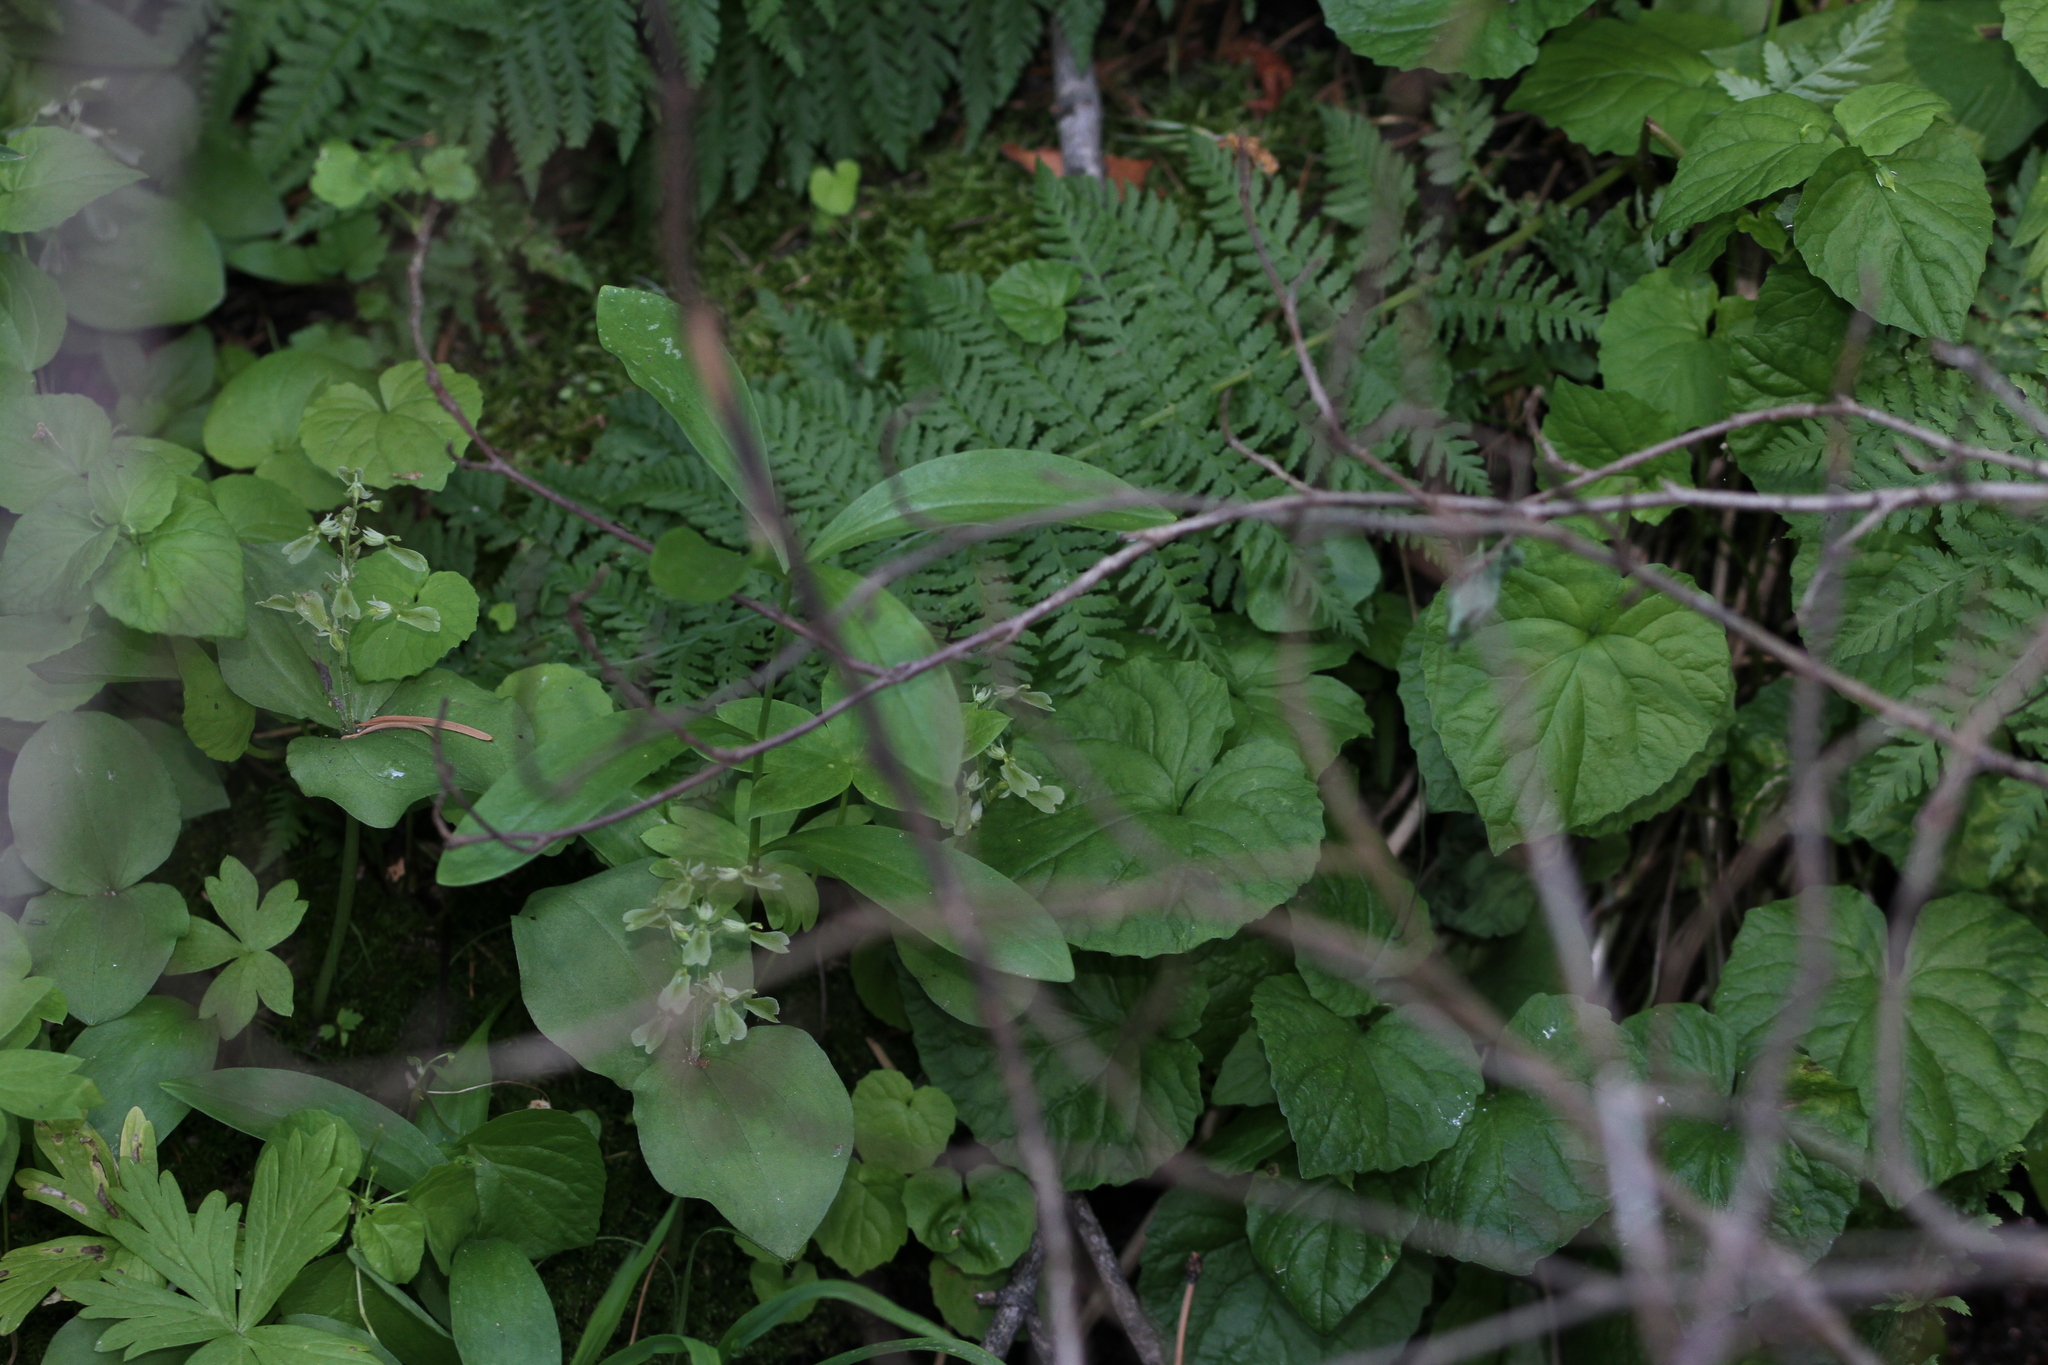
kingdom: Plantae
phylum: Tracheophyta
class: Liliopsida
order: Asparagales
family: Orchidaceae
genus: Neottia
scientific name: Neottia convallarioides
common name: Broadleaf twayblade
